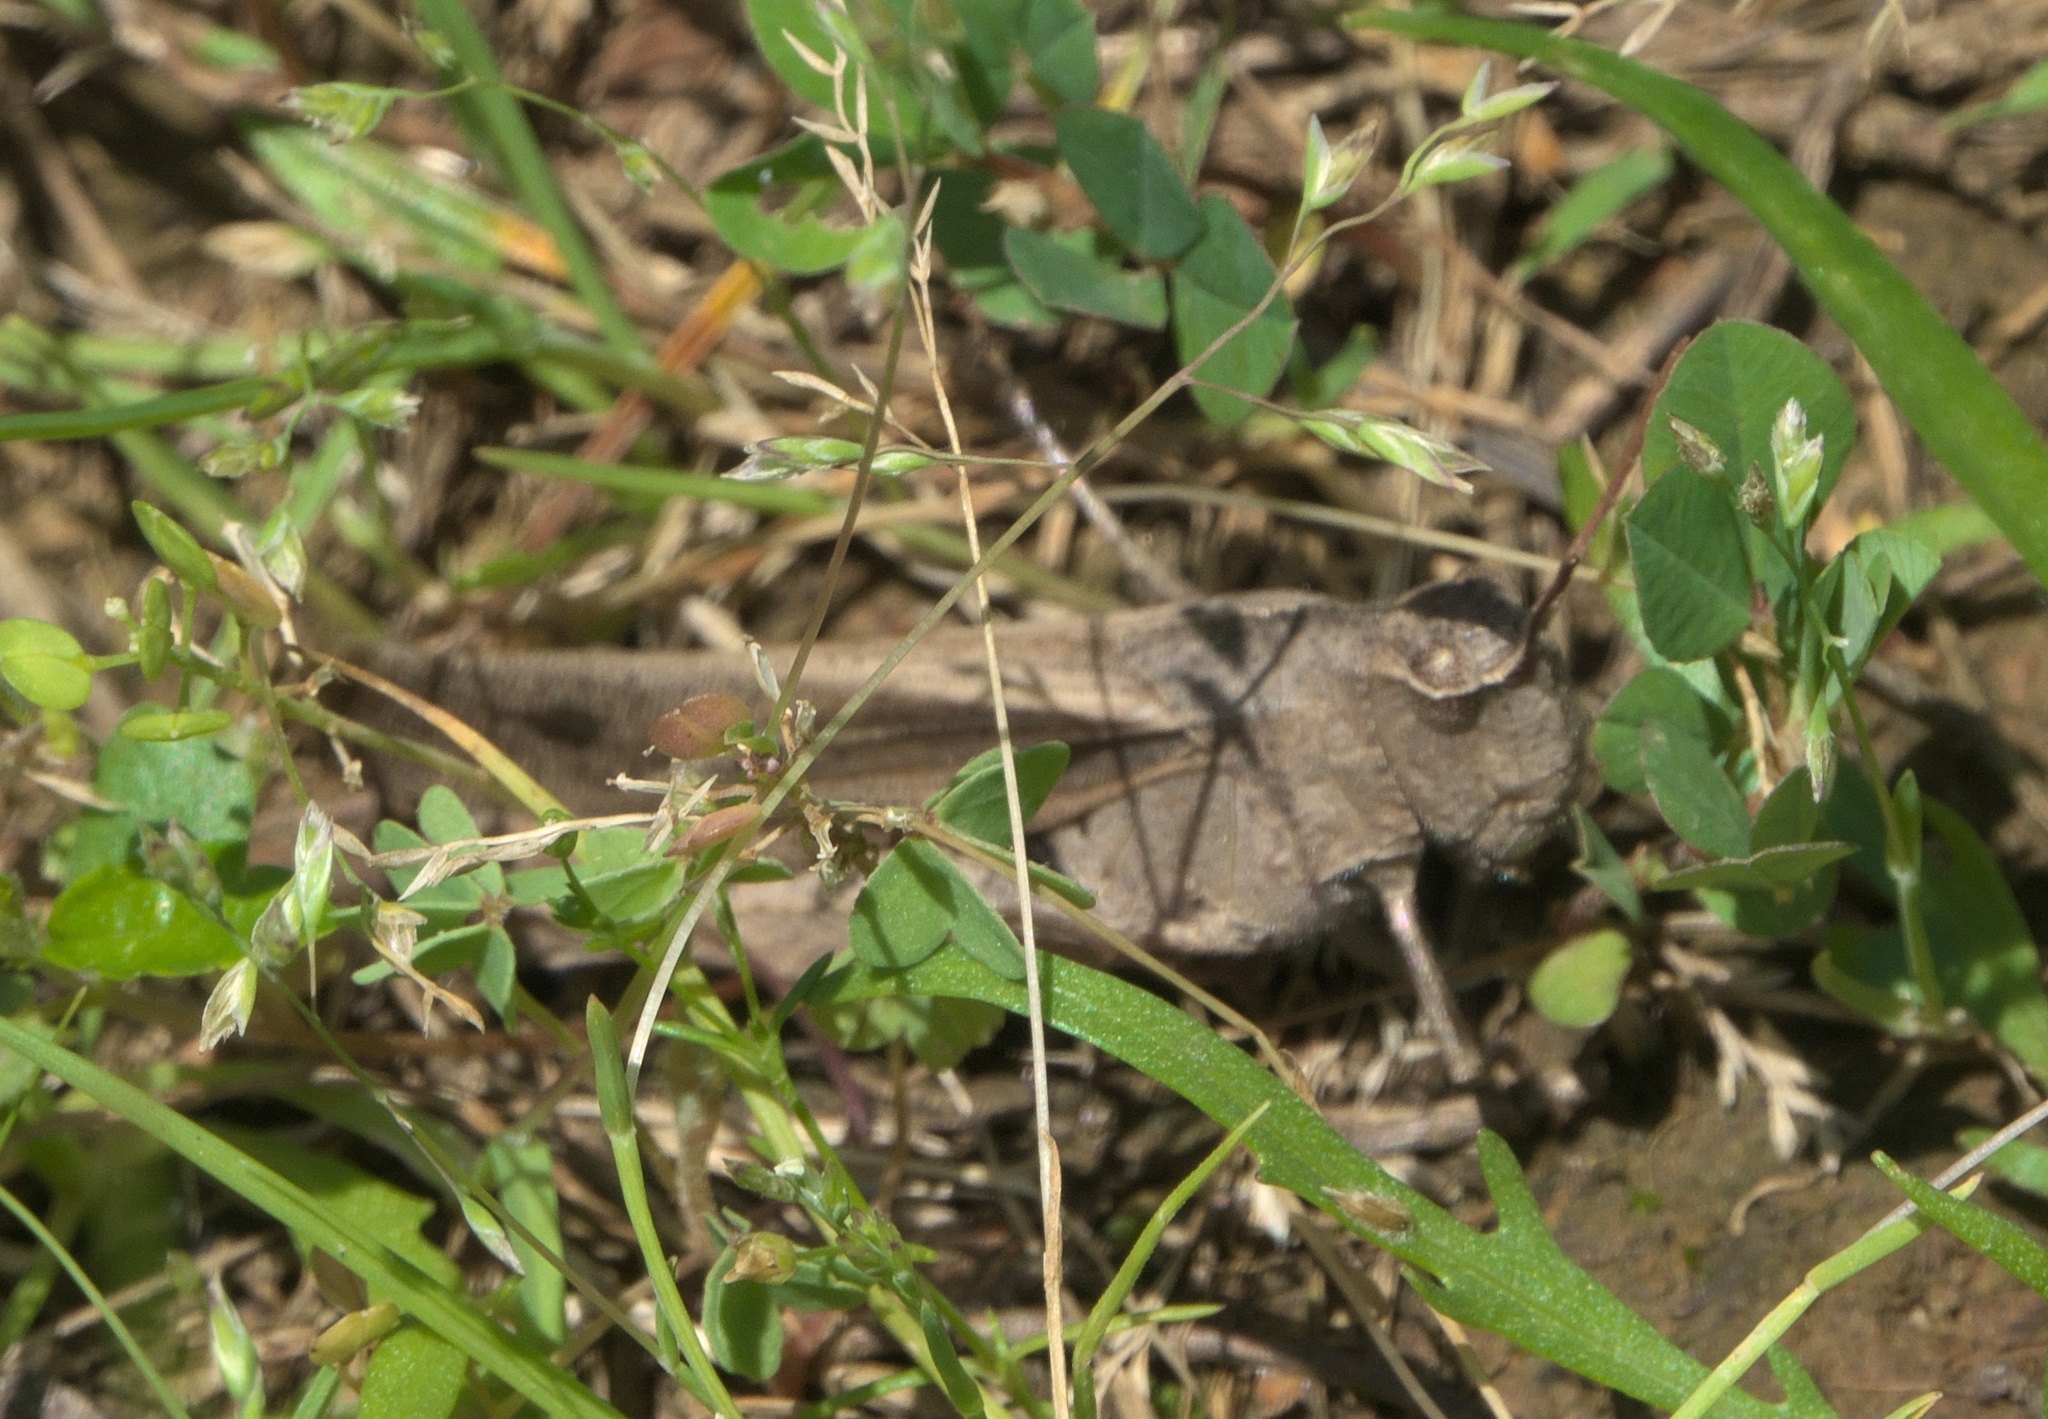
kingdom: Animalia
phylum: Arthropoda
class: Insecta
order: Orthoptera
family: Acrididae
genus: Chortophaga
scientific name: Chortophaga viridifasciata
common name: Green-striped grasshopper
